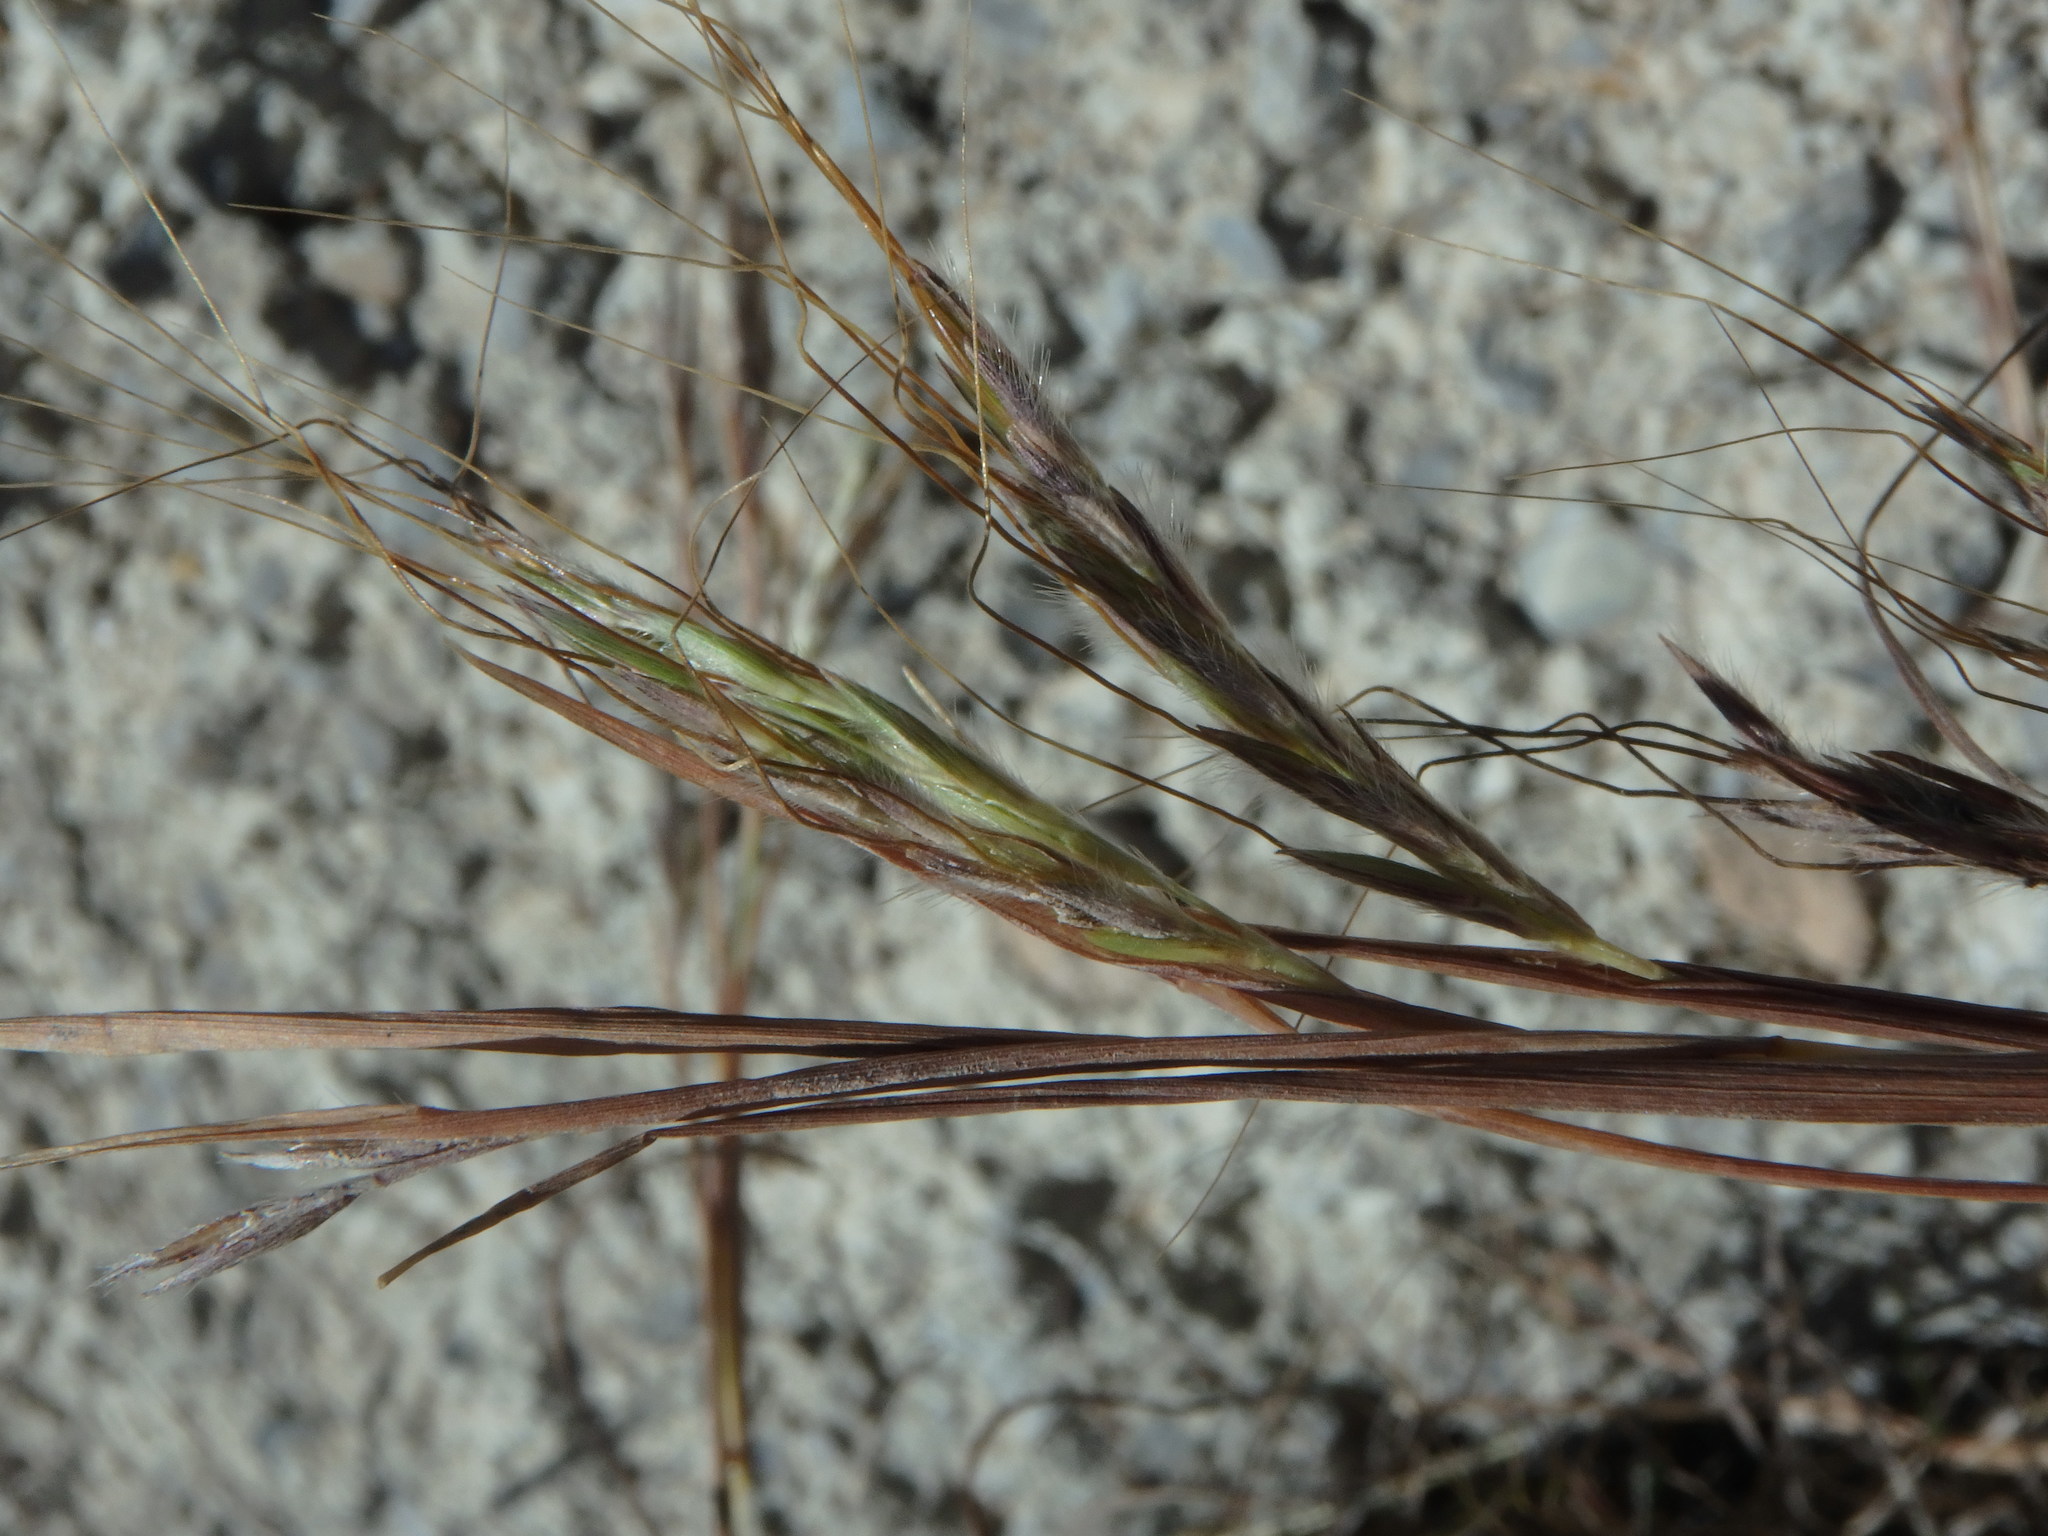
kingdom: Plantae
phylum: Tracheophyta
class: Liliopsida
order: Poales
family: Poaceae
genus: Hyparrhenia
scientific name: Hyparrhenia hirta
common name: Thatching grass
